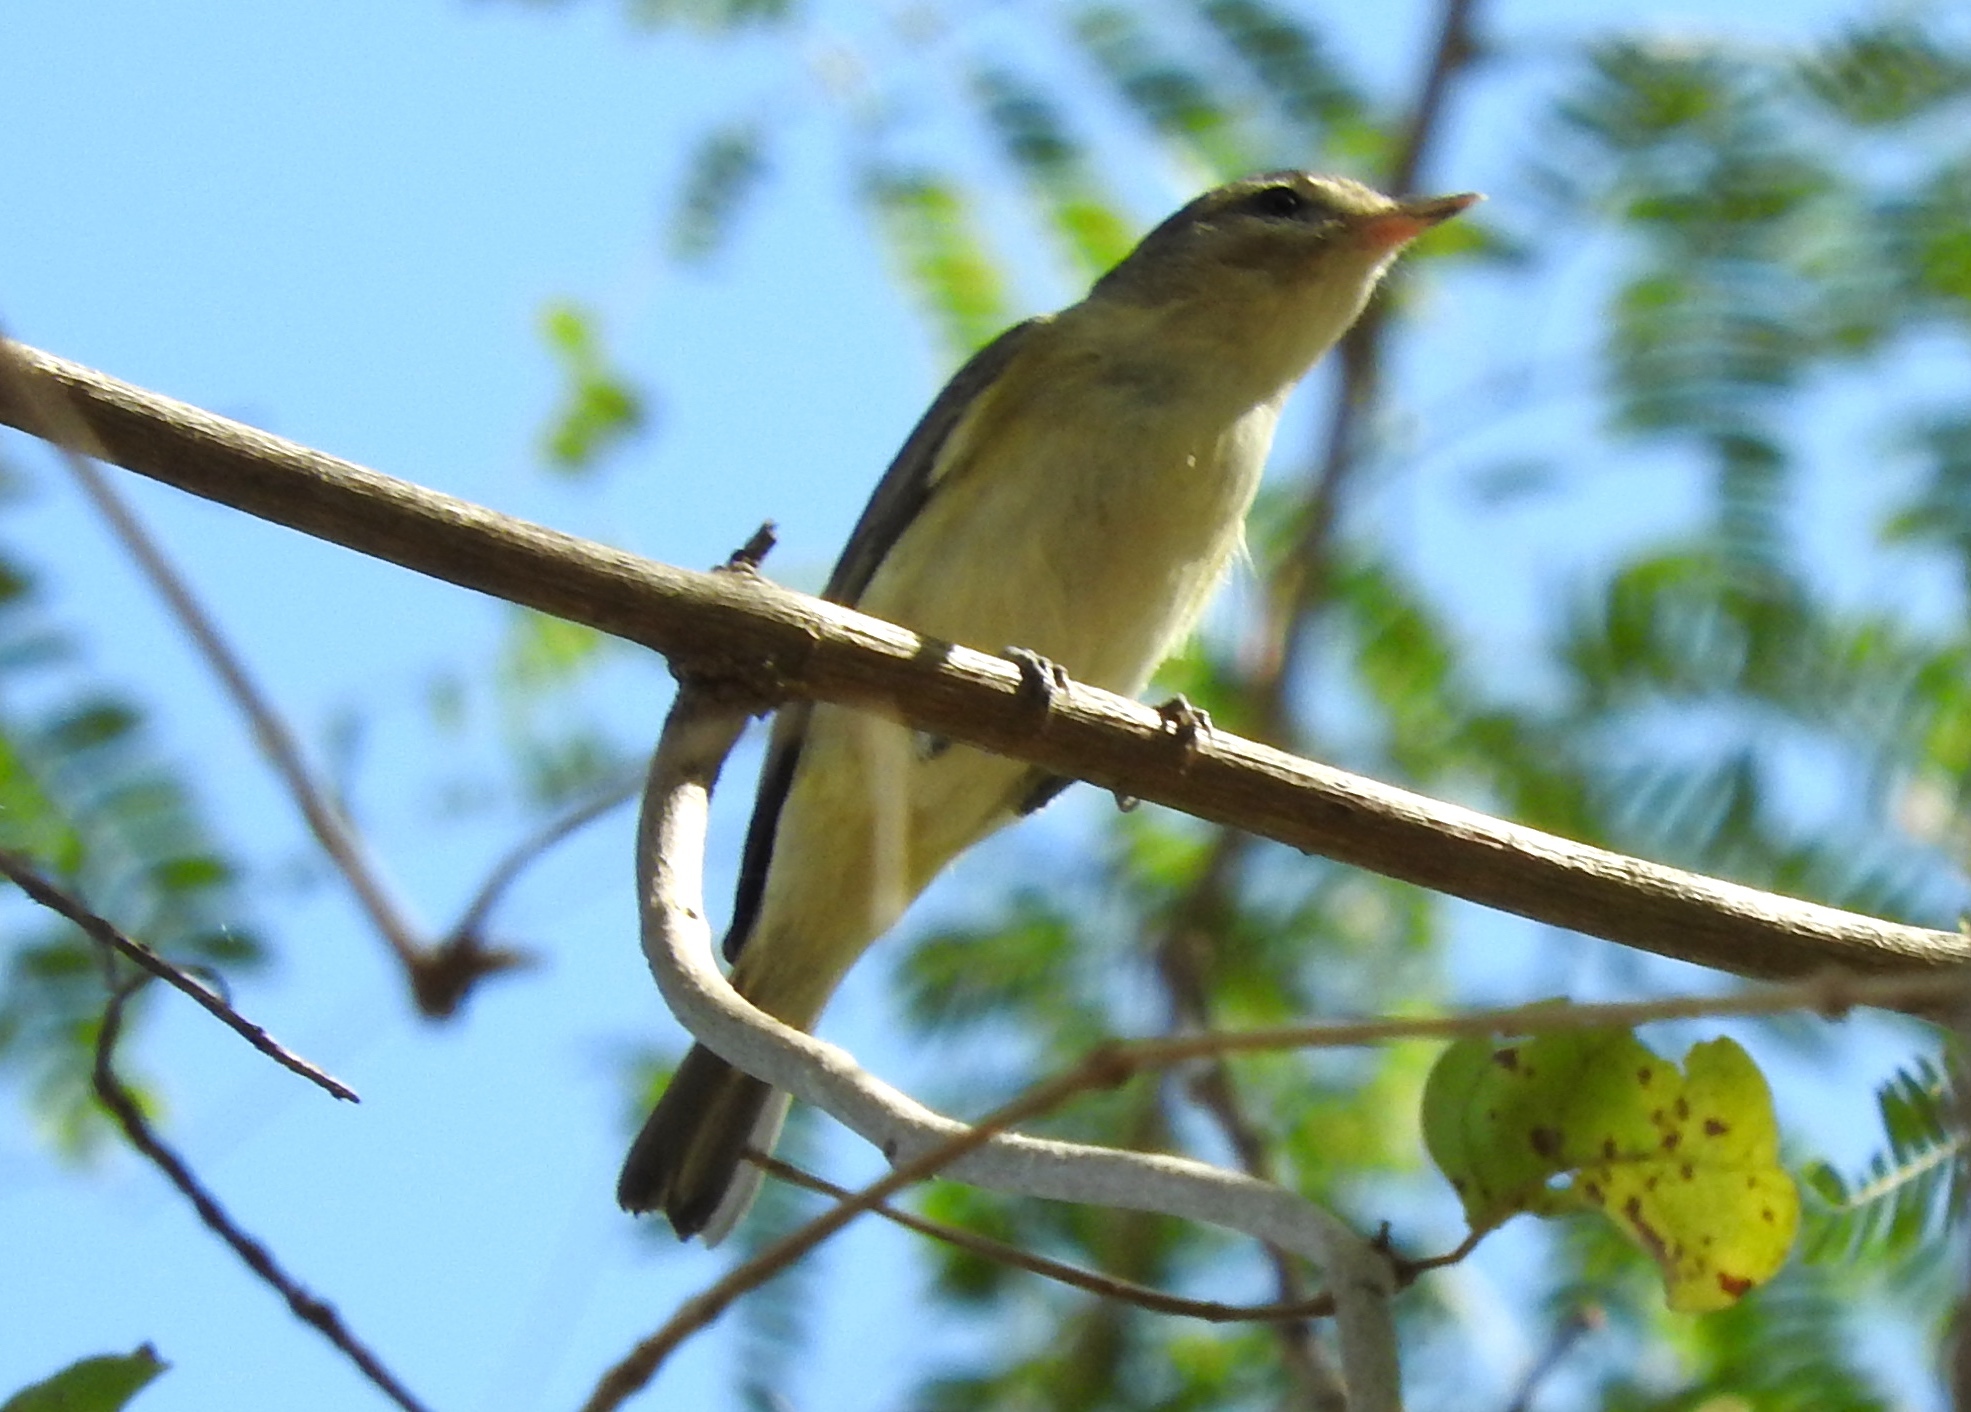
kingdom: Animalia
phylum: Chordata
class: Aves
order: Passeriformes
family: Vireonidae
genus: Vireo
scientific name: Vireo gilvus
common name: Warbling vireo
